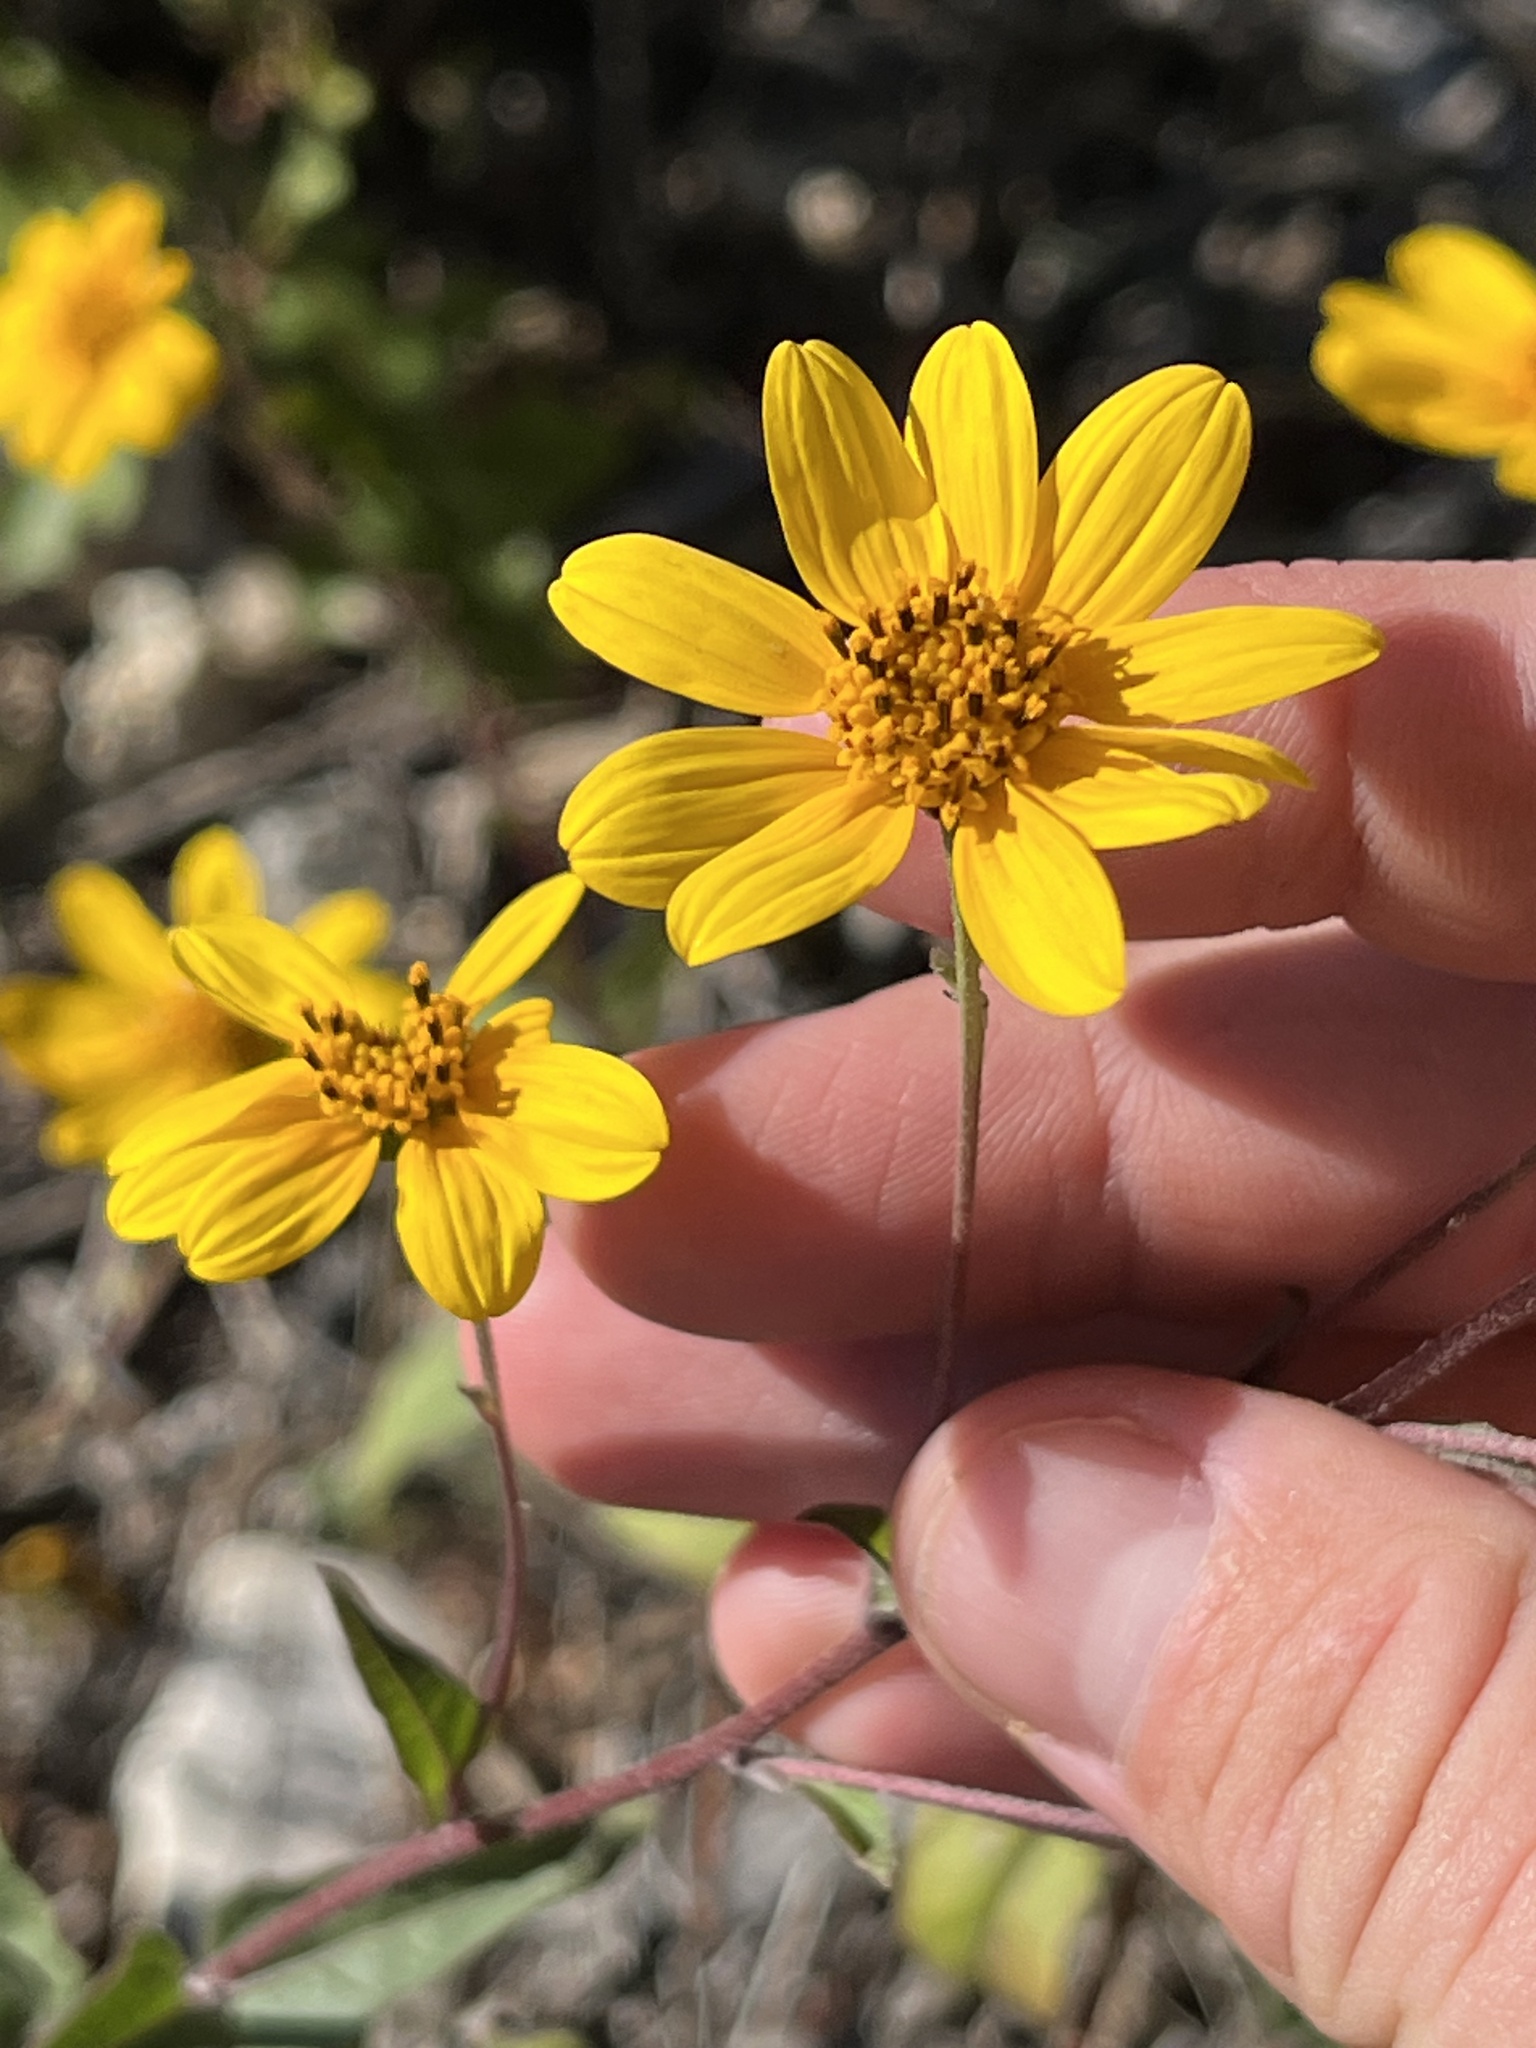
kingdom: Plantae
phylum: Tracheophyta
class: Magnoliopsida
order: Asterales
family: Asteraceae
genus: Viguiera
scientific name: Viguiera dentata
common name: Toothleaf
